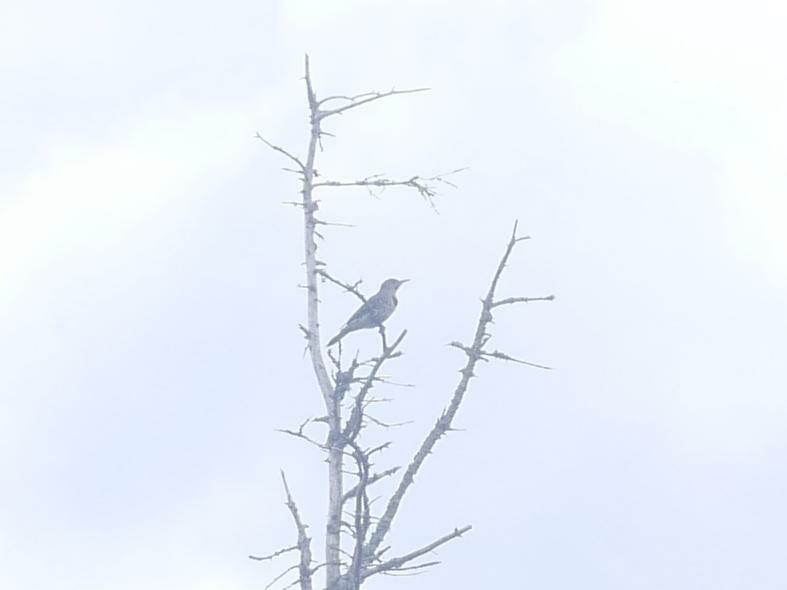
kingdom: Animalia
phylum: Chordata
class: Aves
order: Piciformes
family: Picidae
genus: Colaptes
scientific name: Colaptes auratus
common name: Northern flicker
